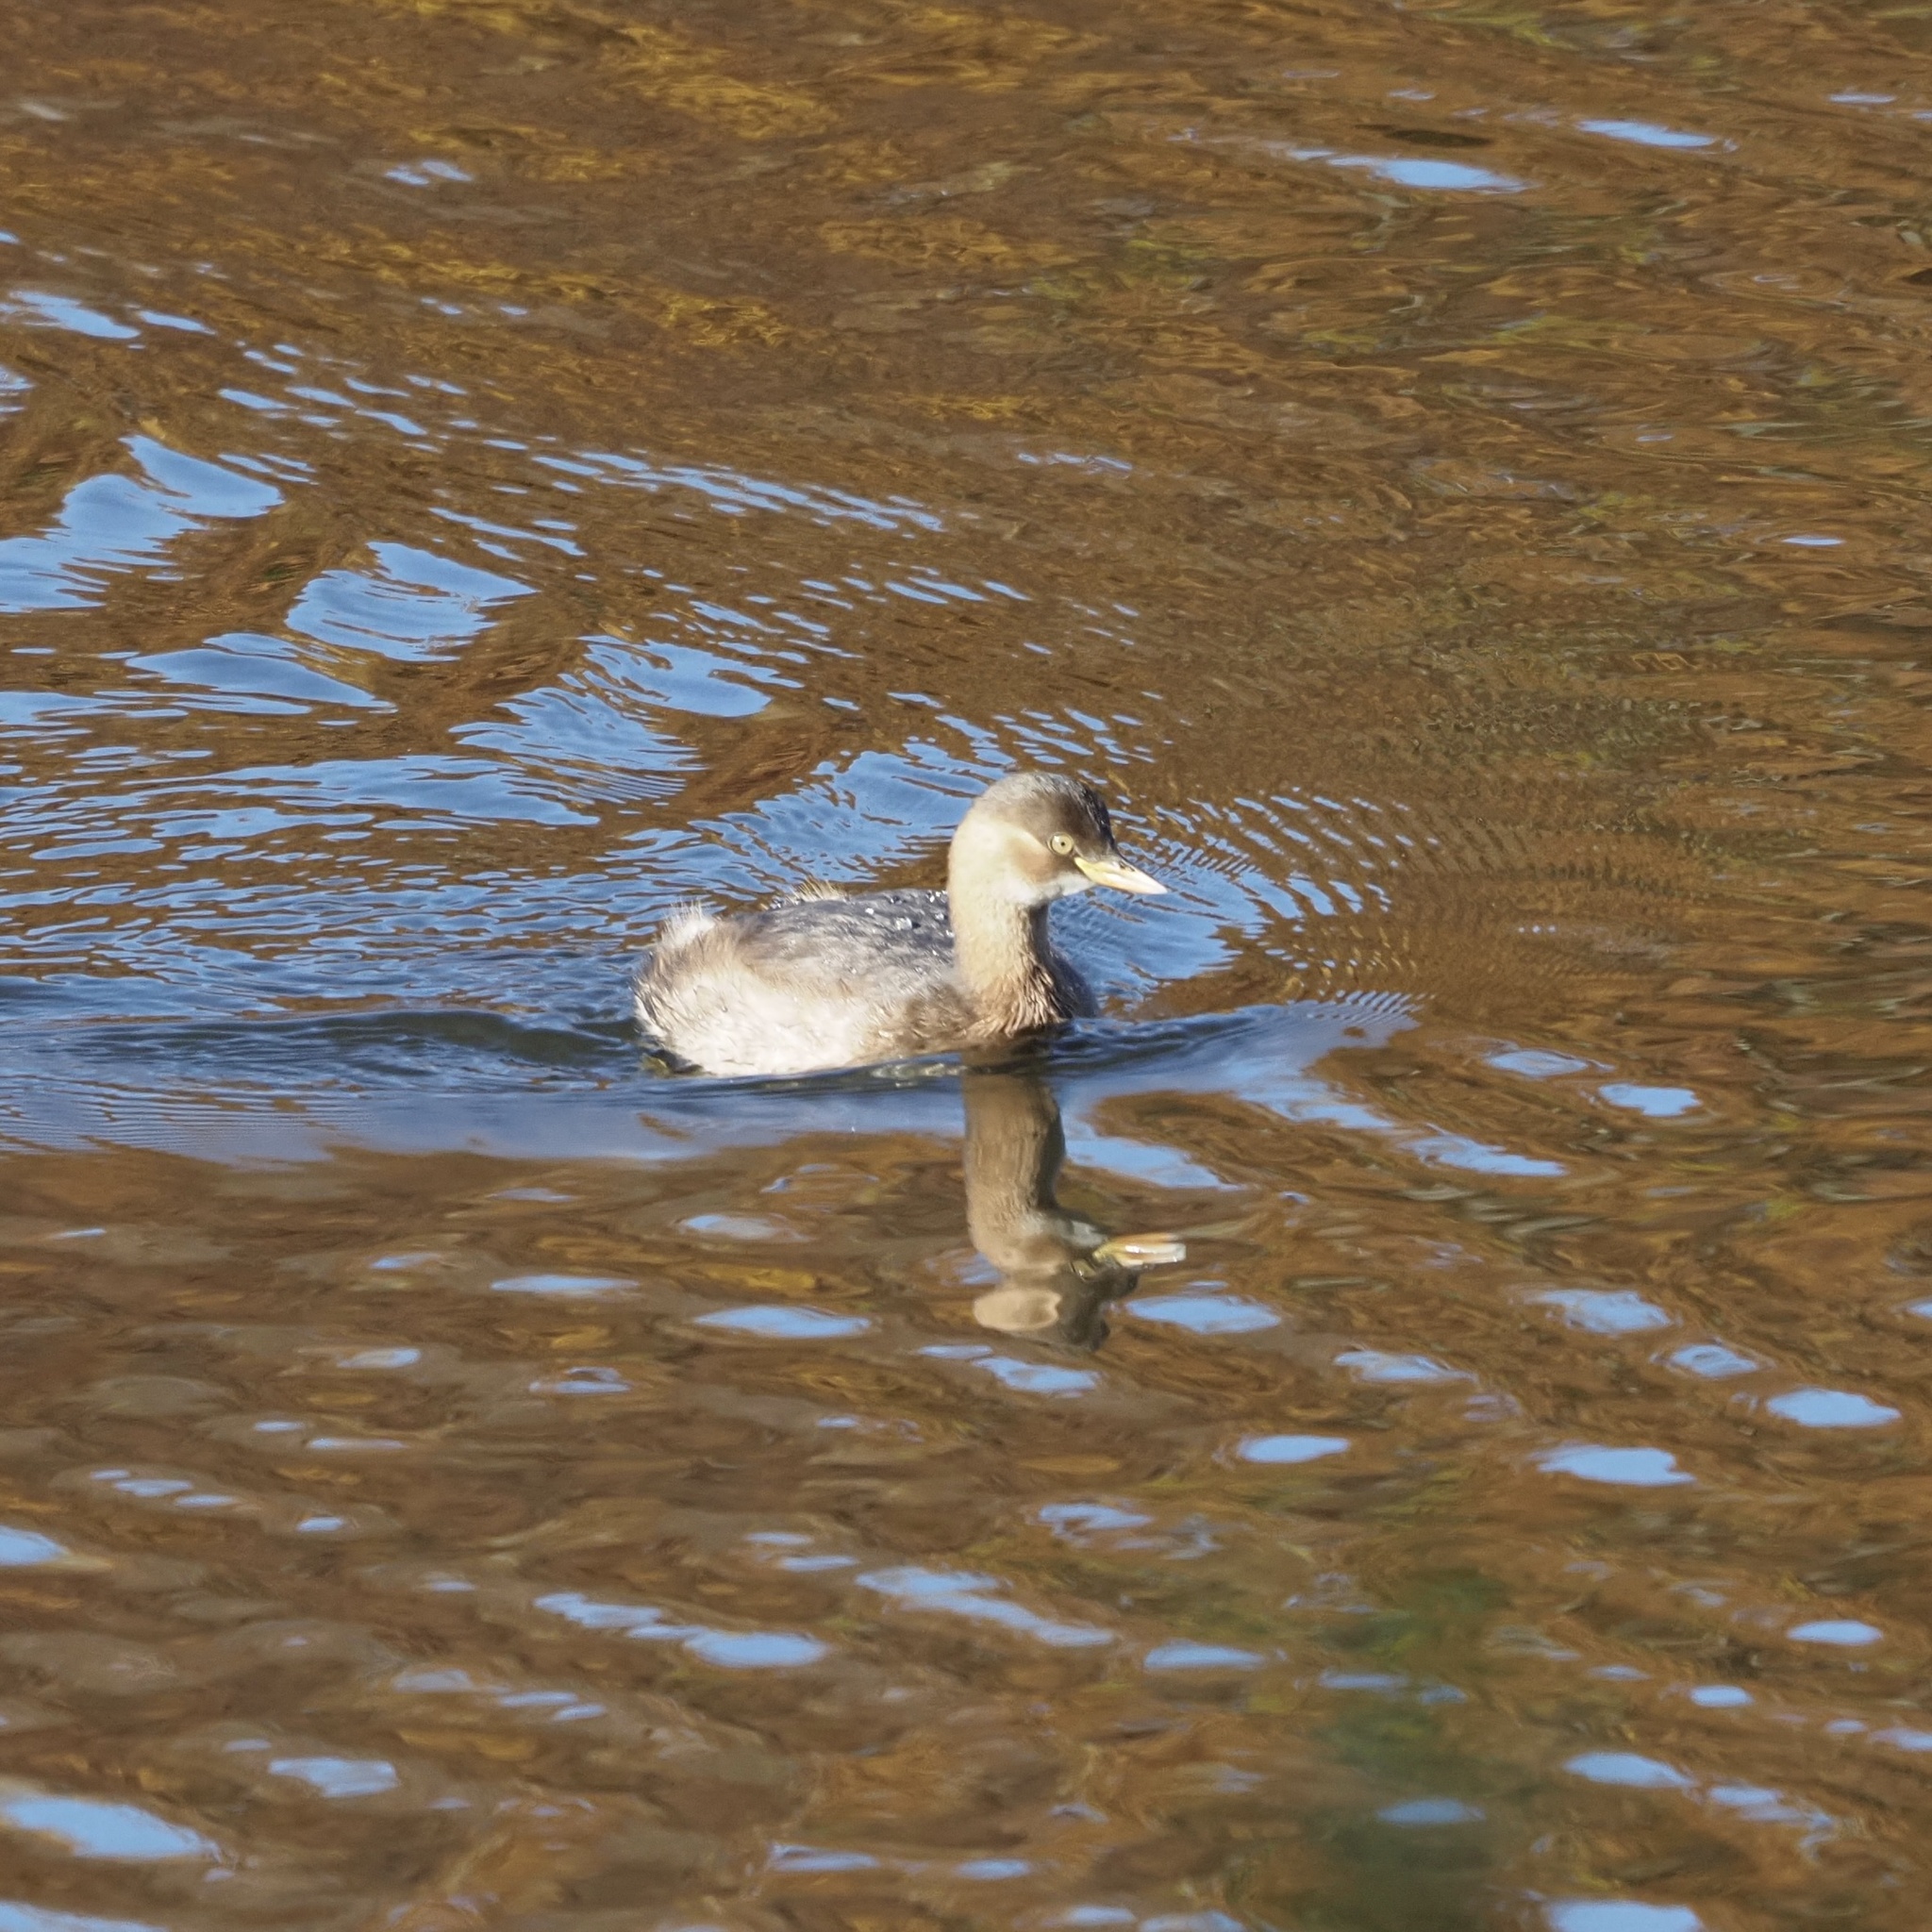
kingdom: Animalia
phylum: Chordata
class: Aves
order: Podicipediformes
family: Podicipedidae
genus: Tachybaptus
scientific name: Tachybaptus ruficollis
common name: Little grebe
